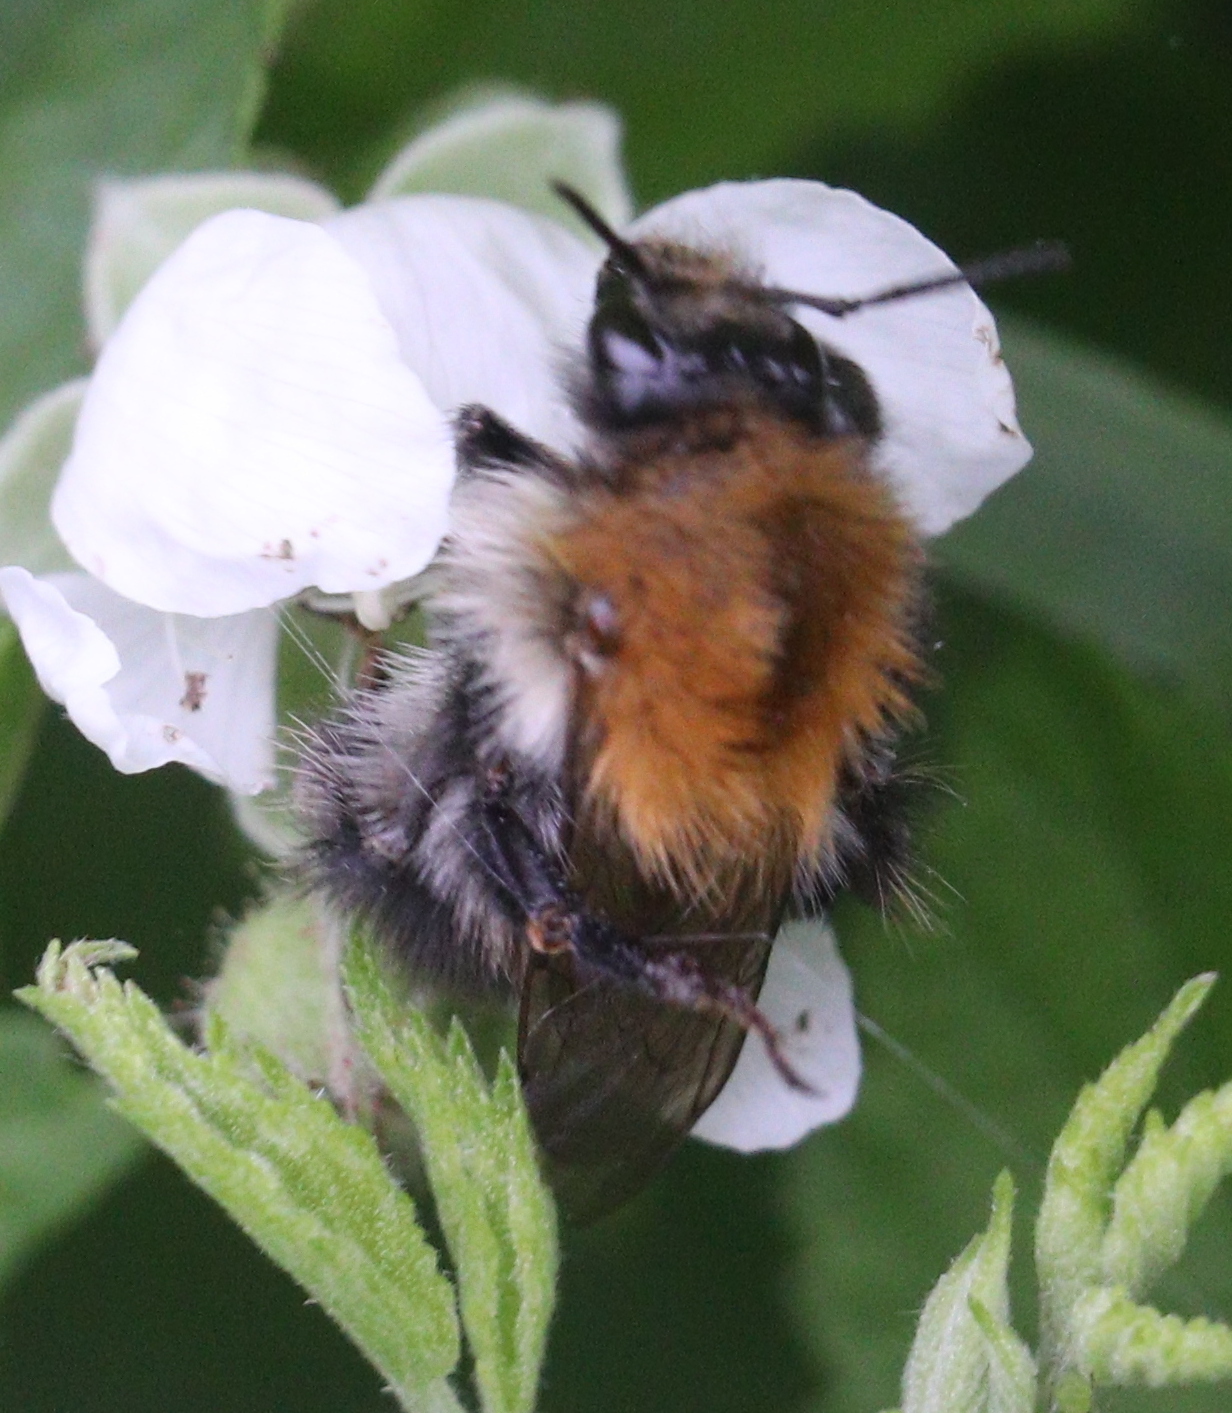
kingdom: Animalia
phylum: Arthropoda
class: Insecta
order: Hymenoptera
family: Apidae
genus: Bombus
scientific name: Bombus pascuorum
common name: Common carder bee
